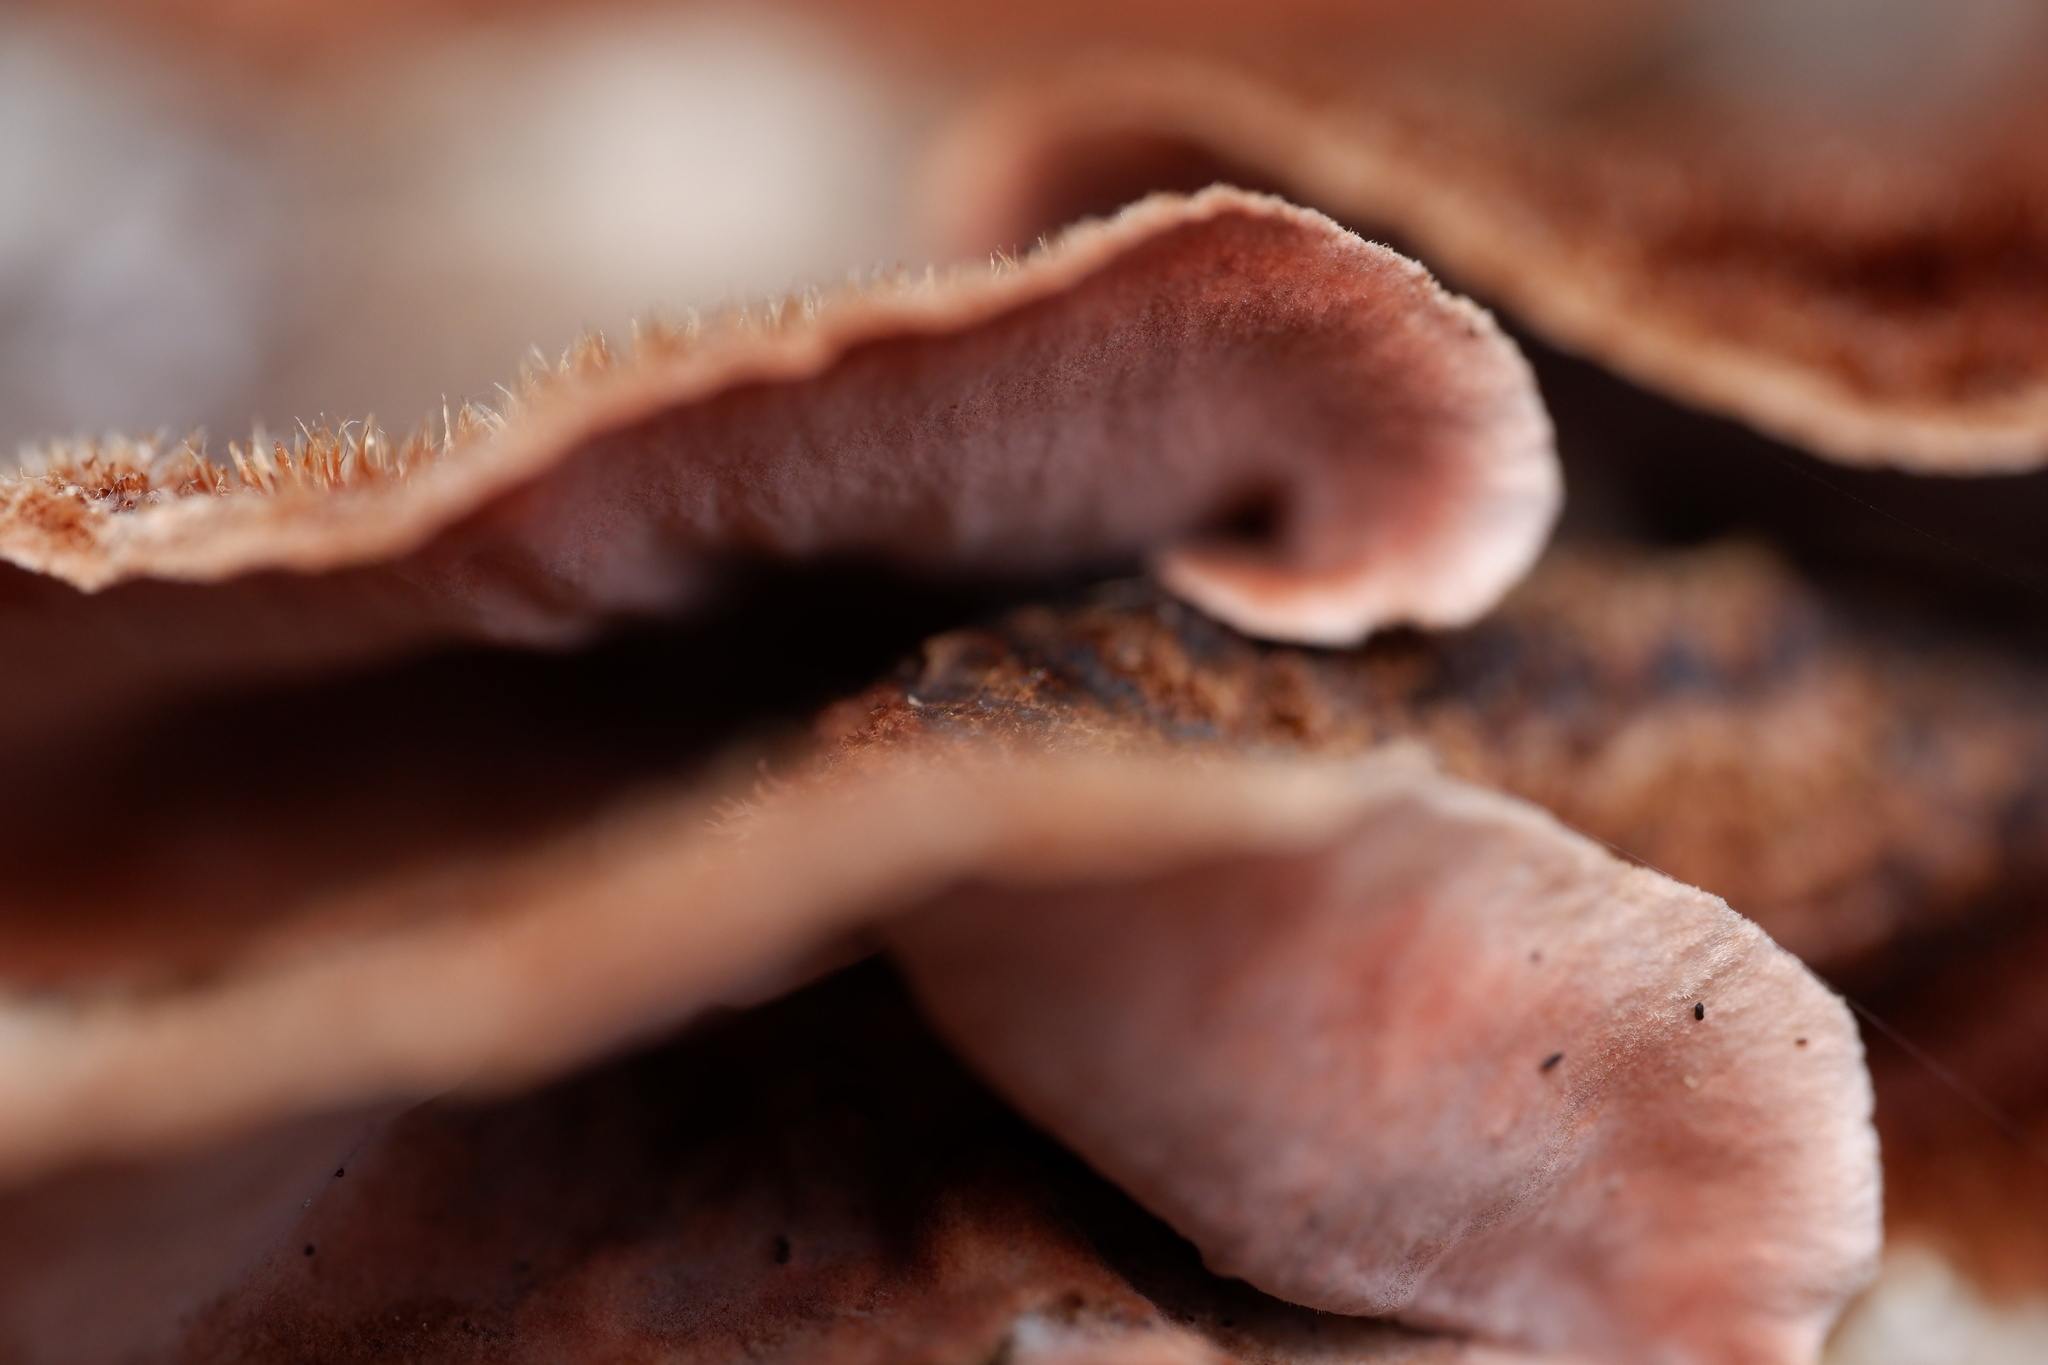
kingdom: Fungi
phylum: Basidiomycota
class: Agaricomycetes
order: Russulales
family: Stereaceae
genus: Xylobolus
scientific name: Xylobolus illudens
